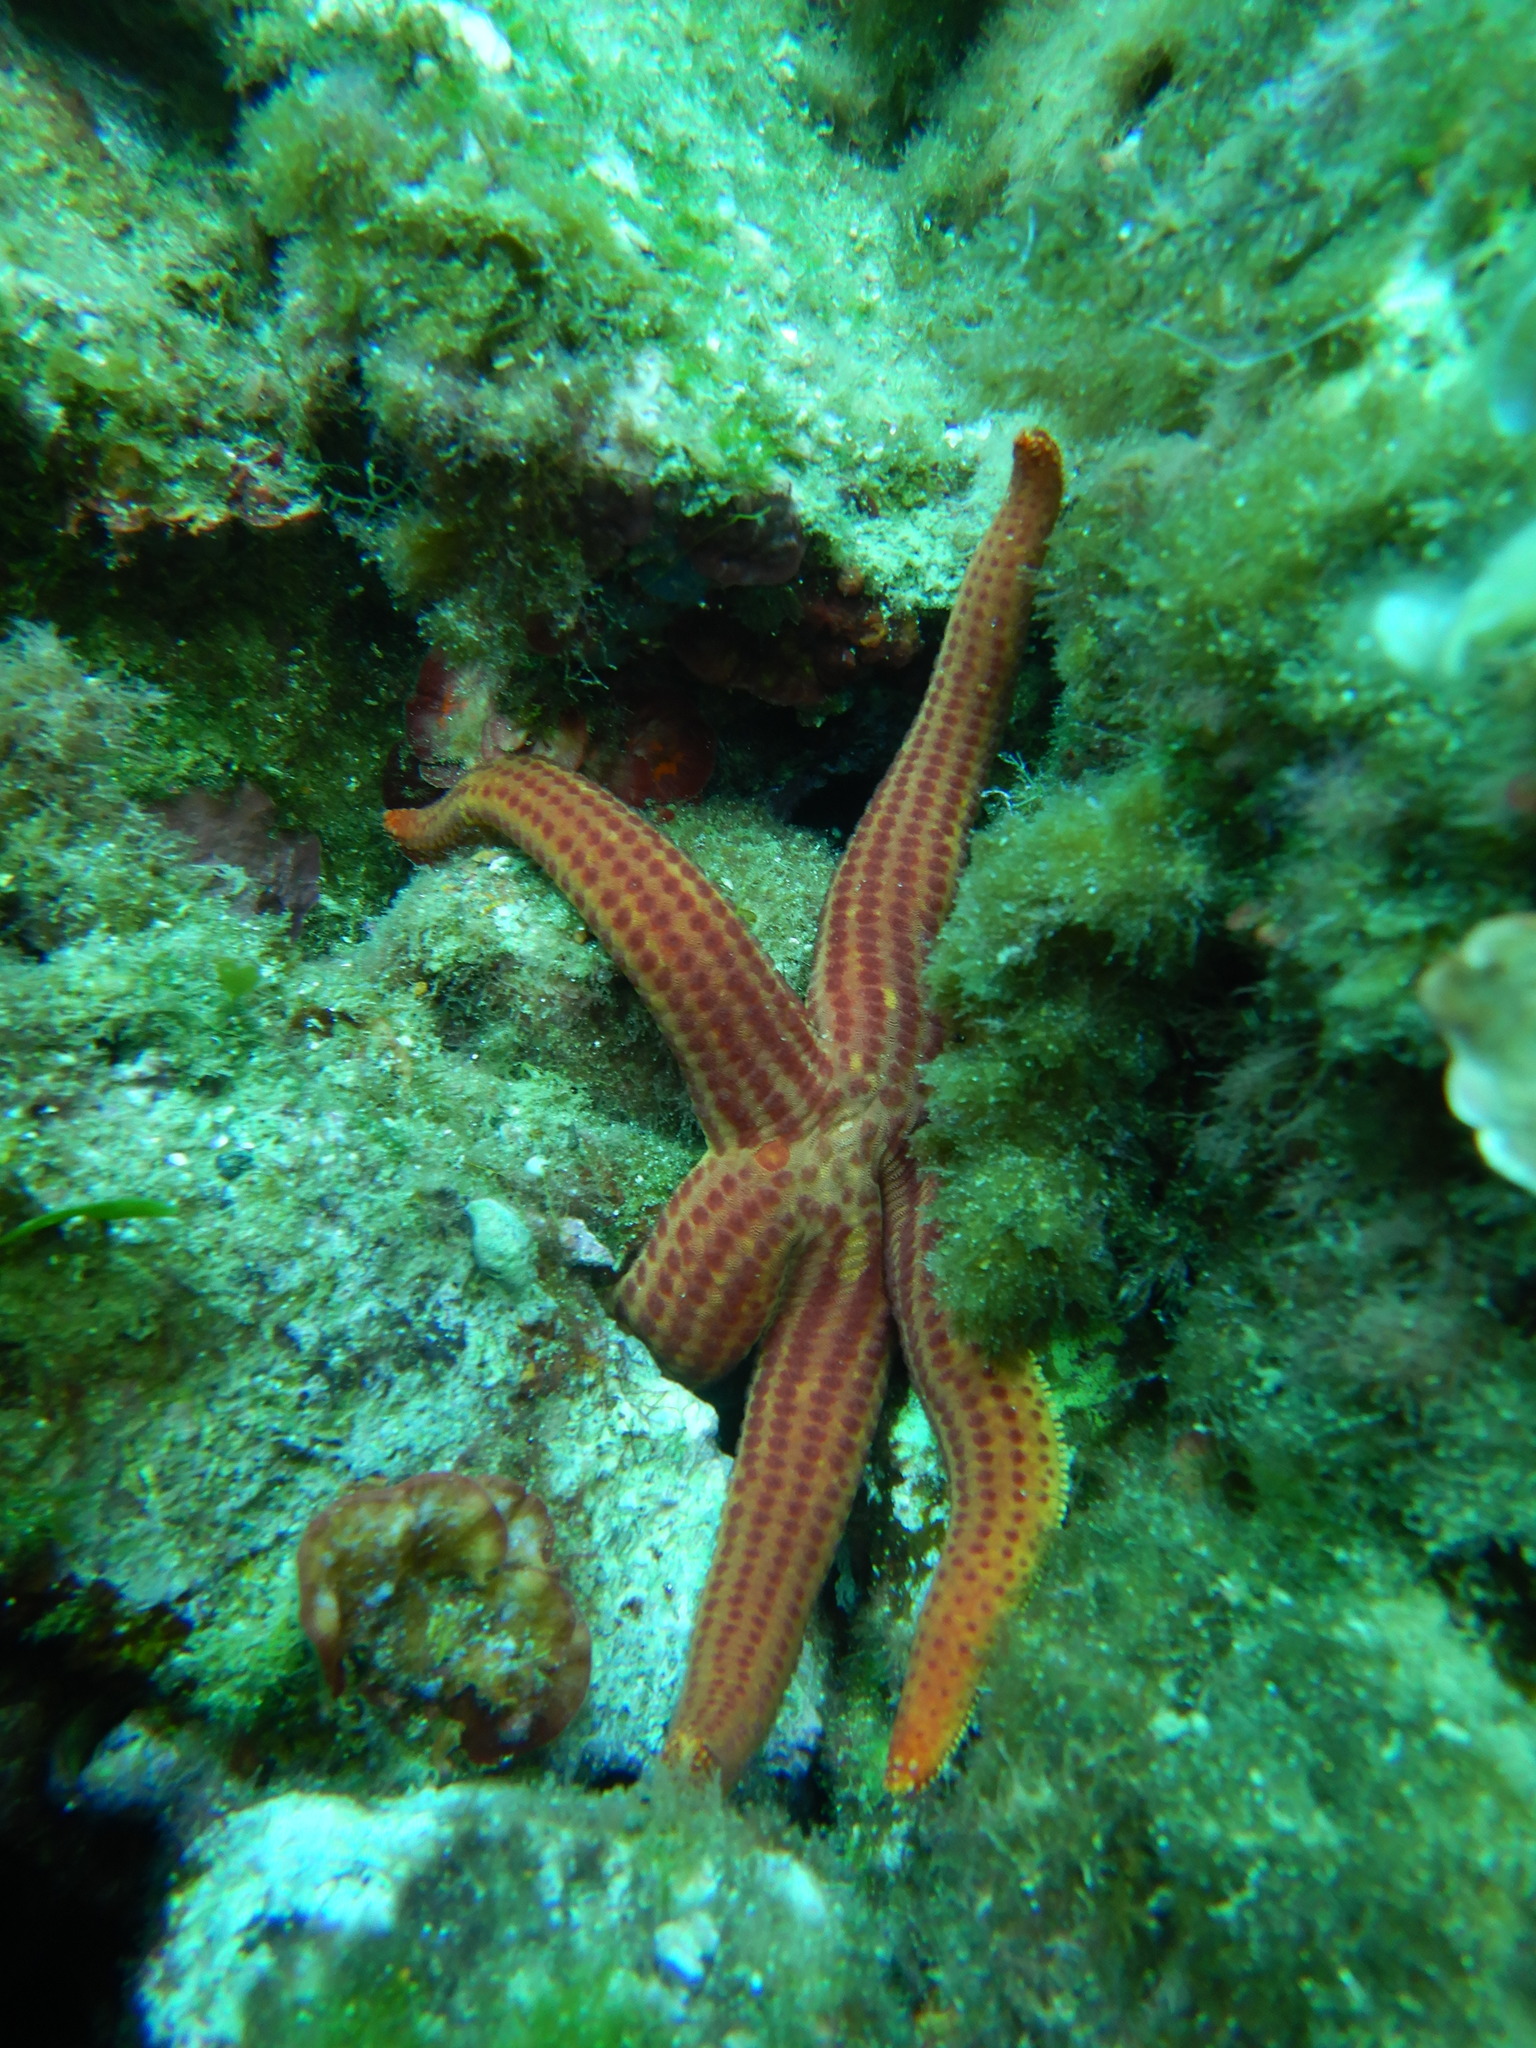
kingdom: Animalia
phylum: Echinodermata
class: Asteroidea
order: Valvatida
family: Ophidiasteridae
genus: Hacelia
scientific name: Hacelia attenuata
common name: Smooth starfish
